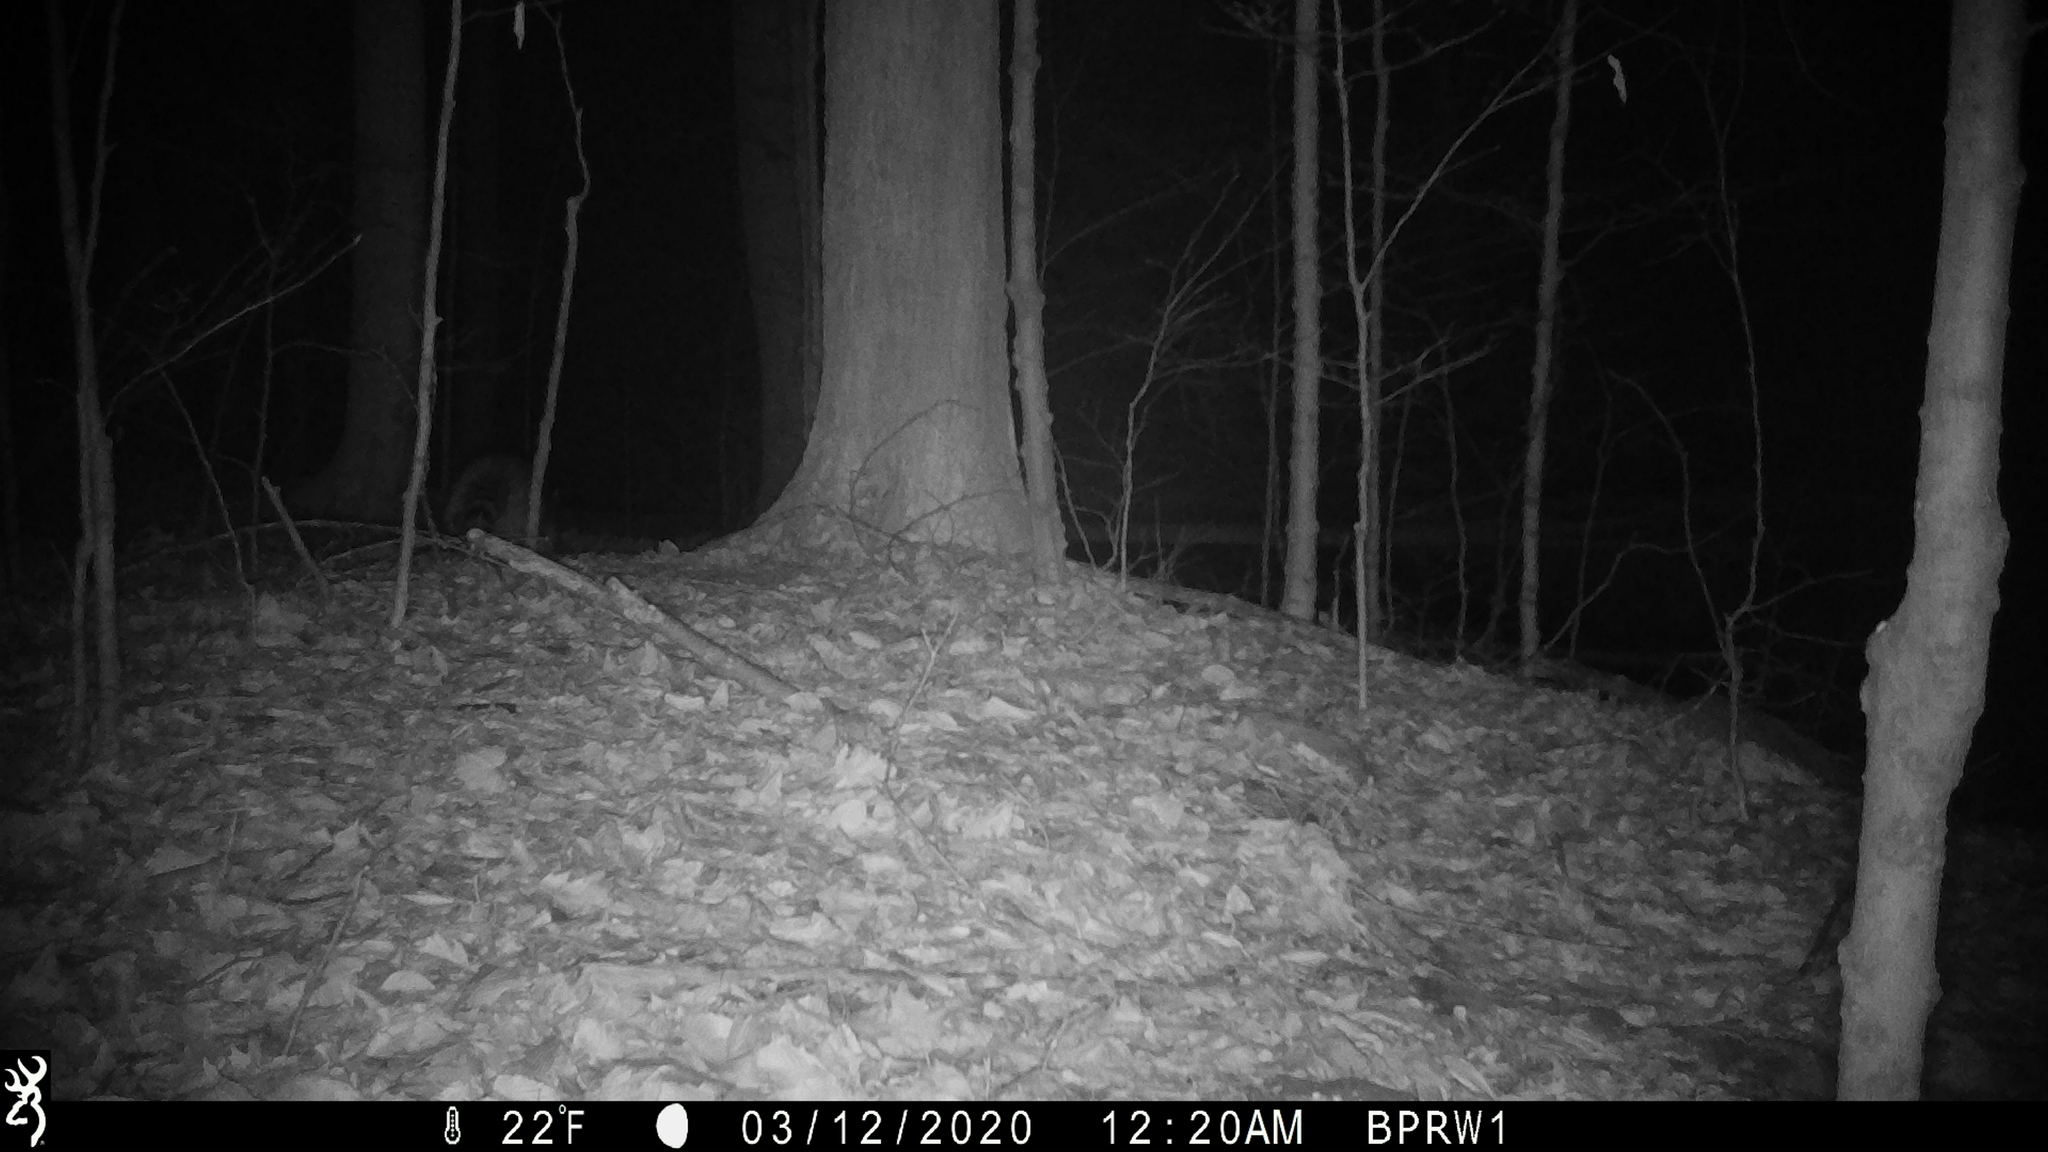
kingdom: Animalia
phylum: Chordata
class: Mammalia
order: Carnivora
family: Procyonidae
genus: Procyon
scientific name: Procyon lotor
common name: Raccoon
